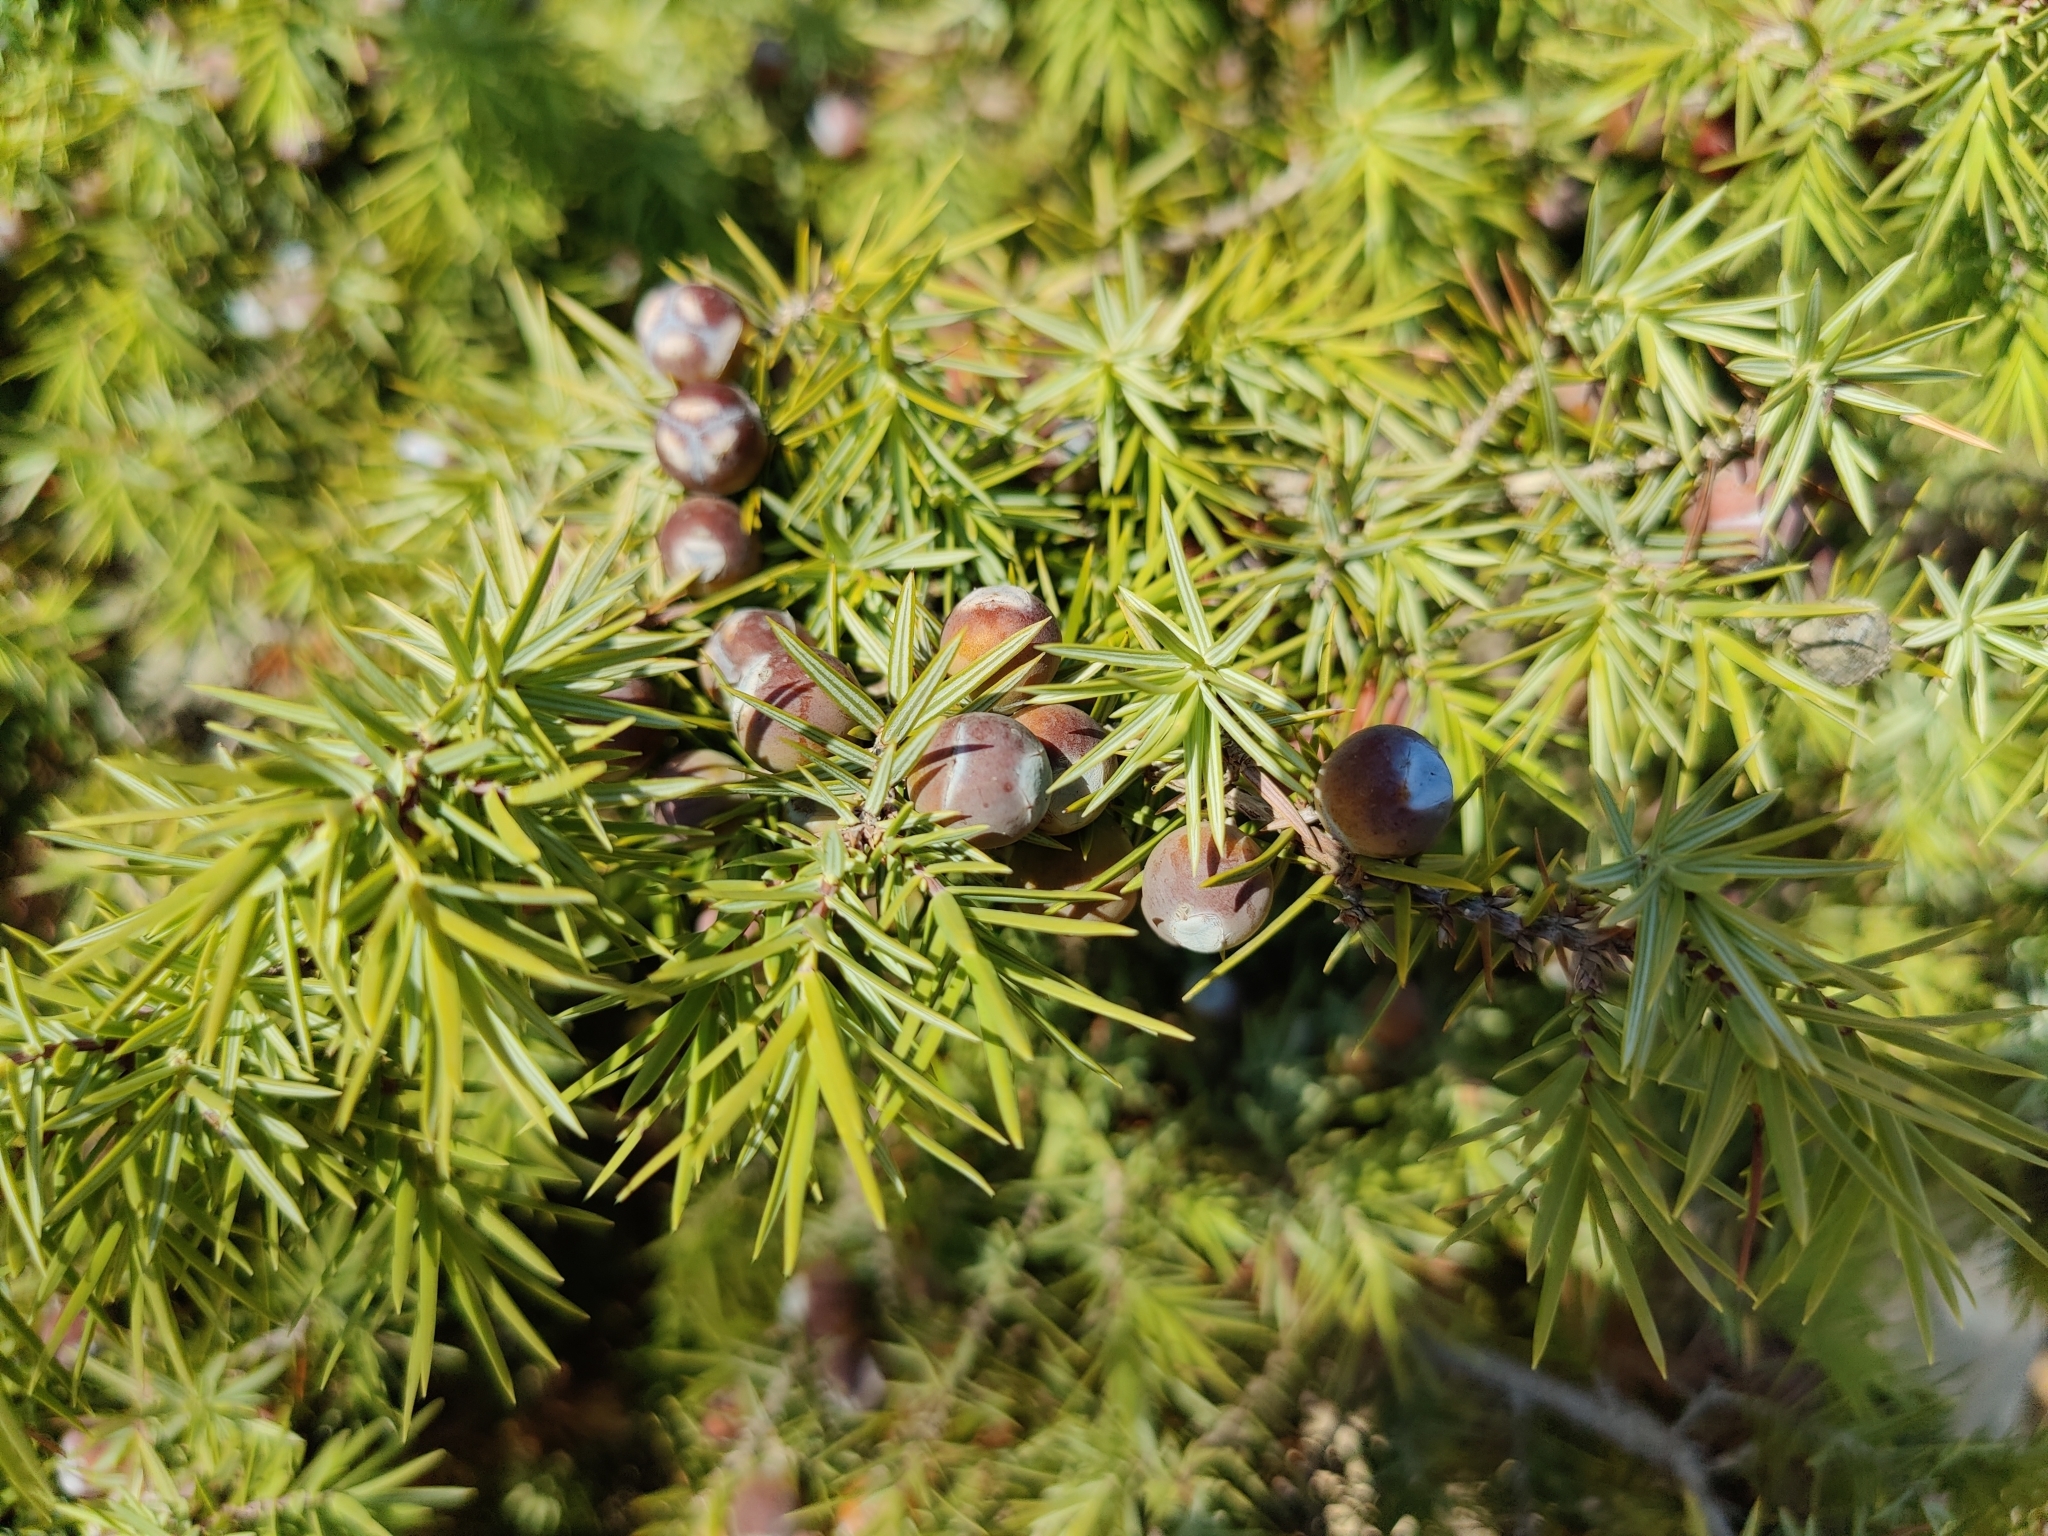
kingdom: Plantae
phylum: Tracheophyta
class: Pinopsida
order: Pinales
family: Cupressaceae
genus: Juniperus
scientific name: Juniperus oxycedrus
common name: Prickly juniper
